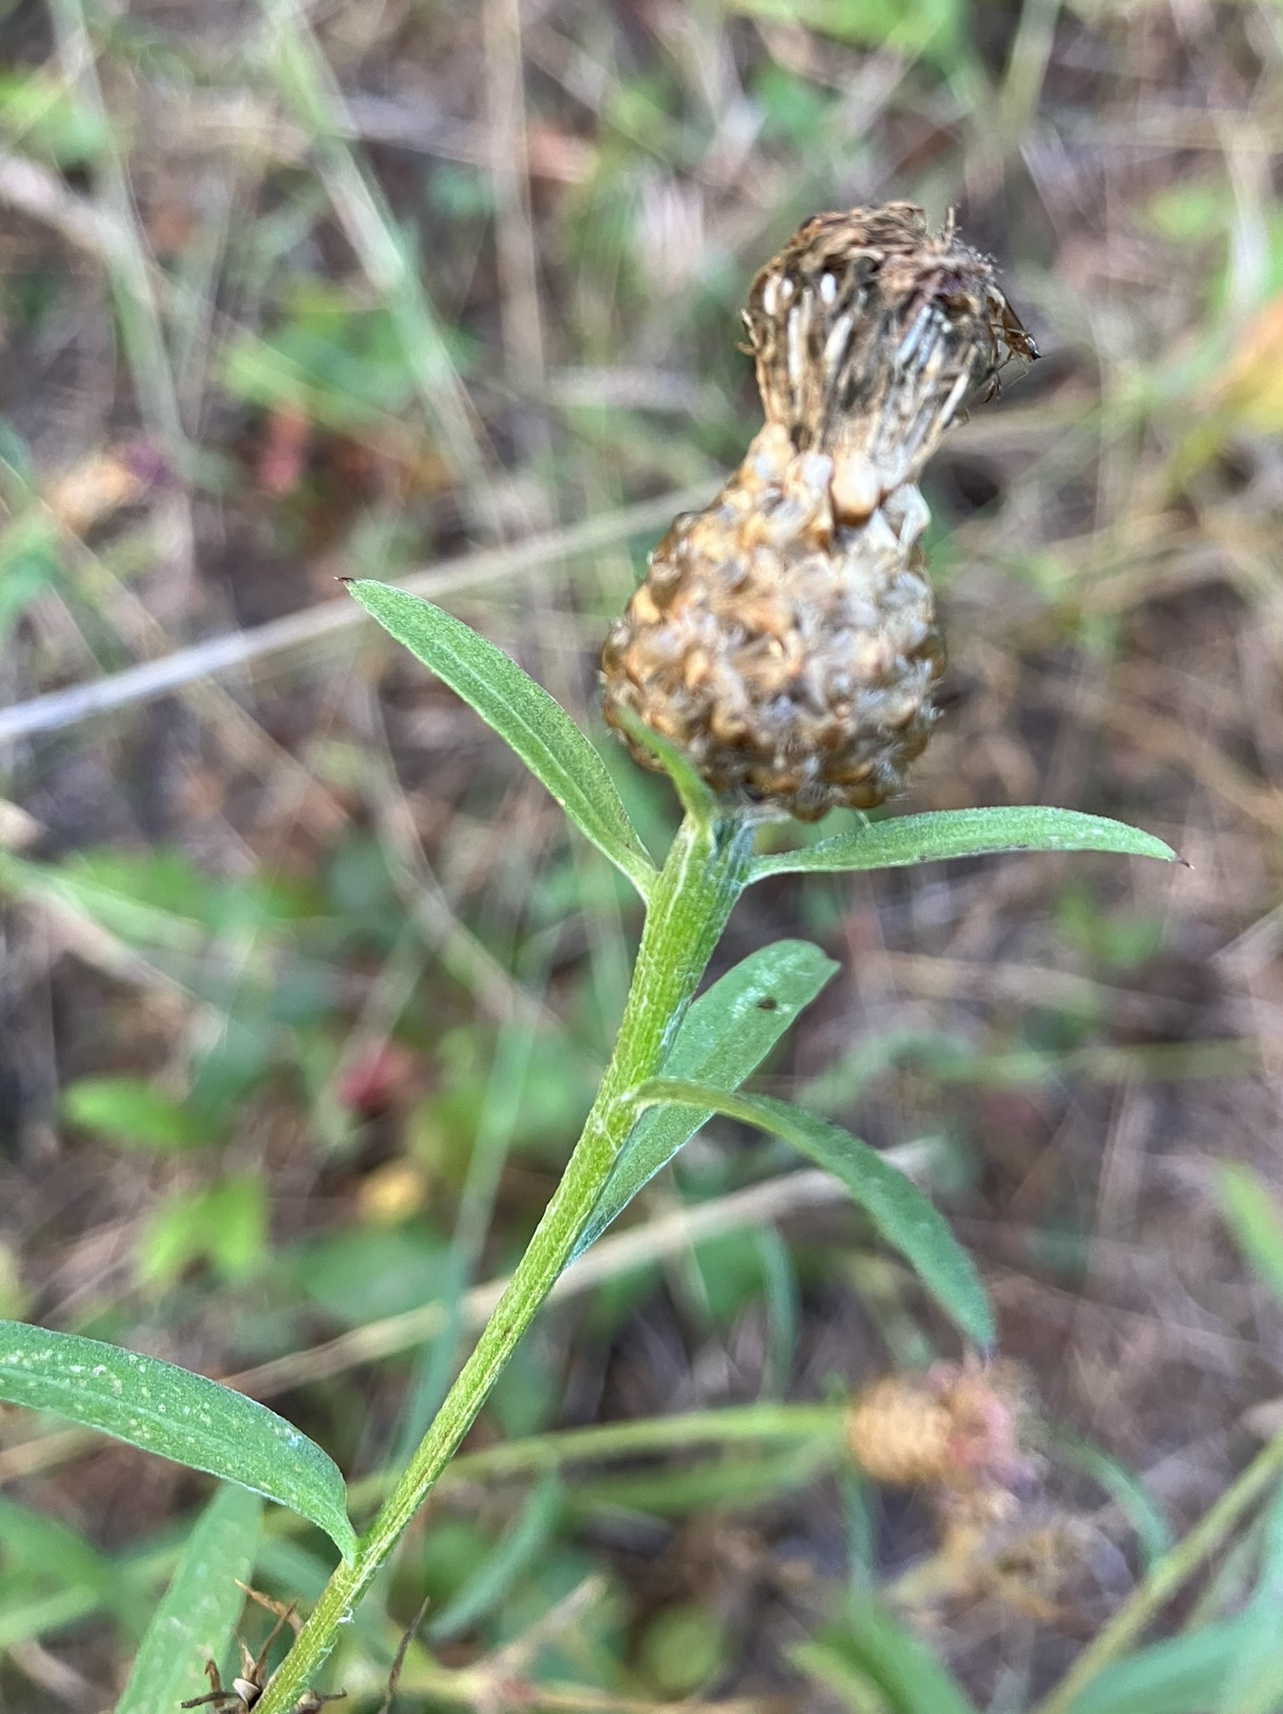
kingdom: Plantae
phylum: Tracheophyta
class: Magnoliopsida
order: Asterales
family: Asteraceae
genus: Centaurea
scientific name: Centaurea cyanus
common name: Cornflower
